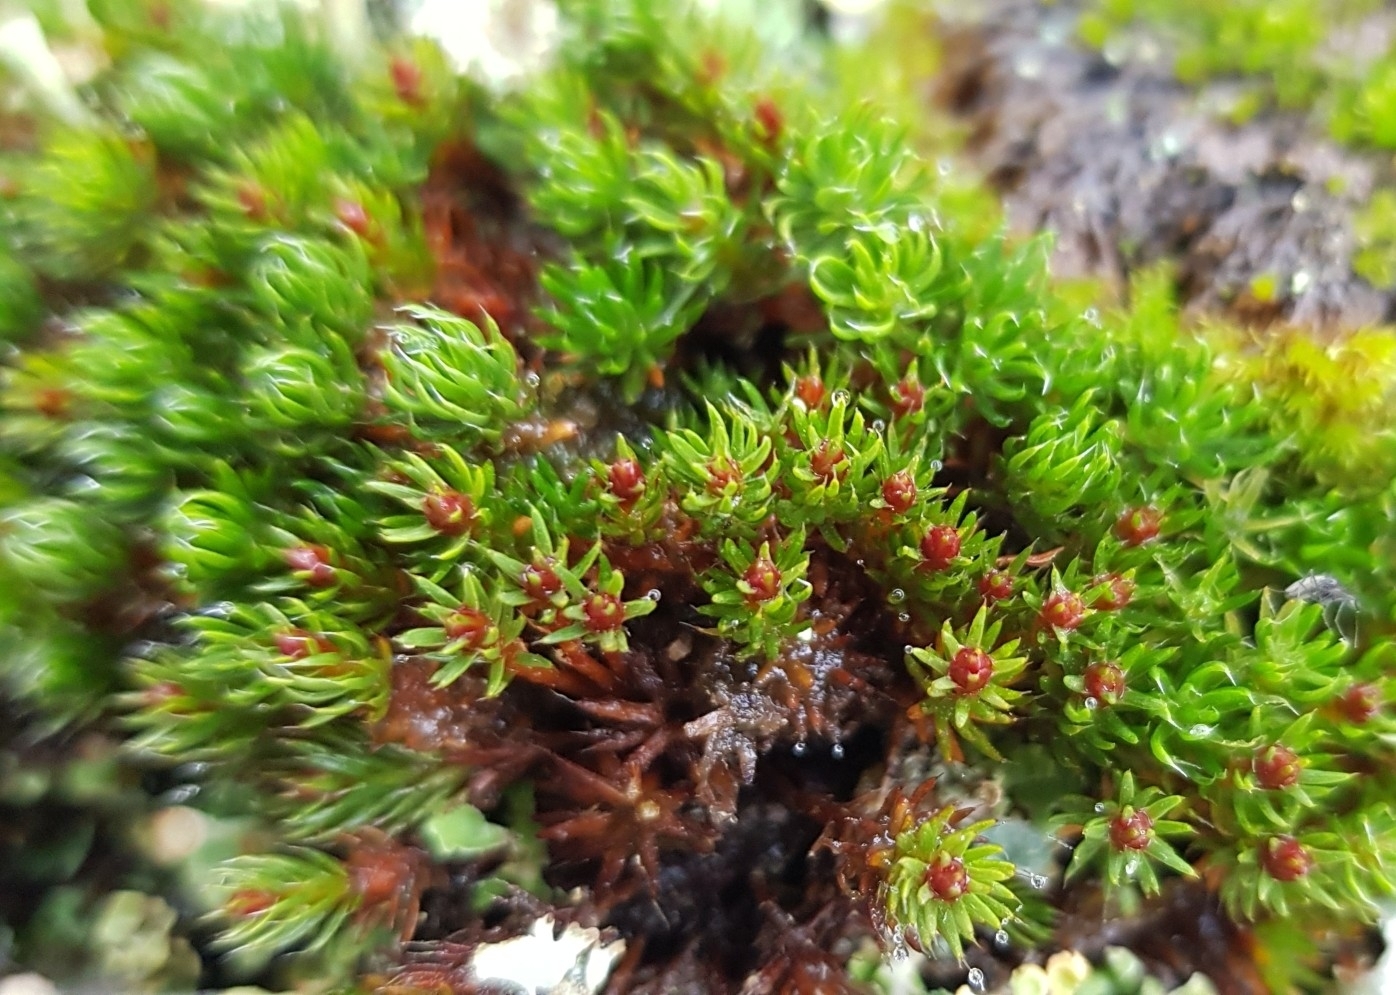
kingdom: Plantae
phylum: Bryophyta
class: Polytrichopsida
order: Polytrichales
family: Polytrichaceae
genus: Polytrichum
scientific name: Polytrichum piliferum
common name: Bristly haircap
